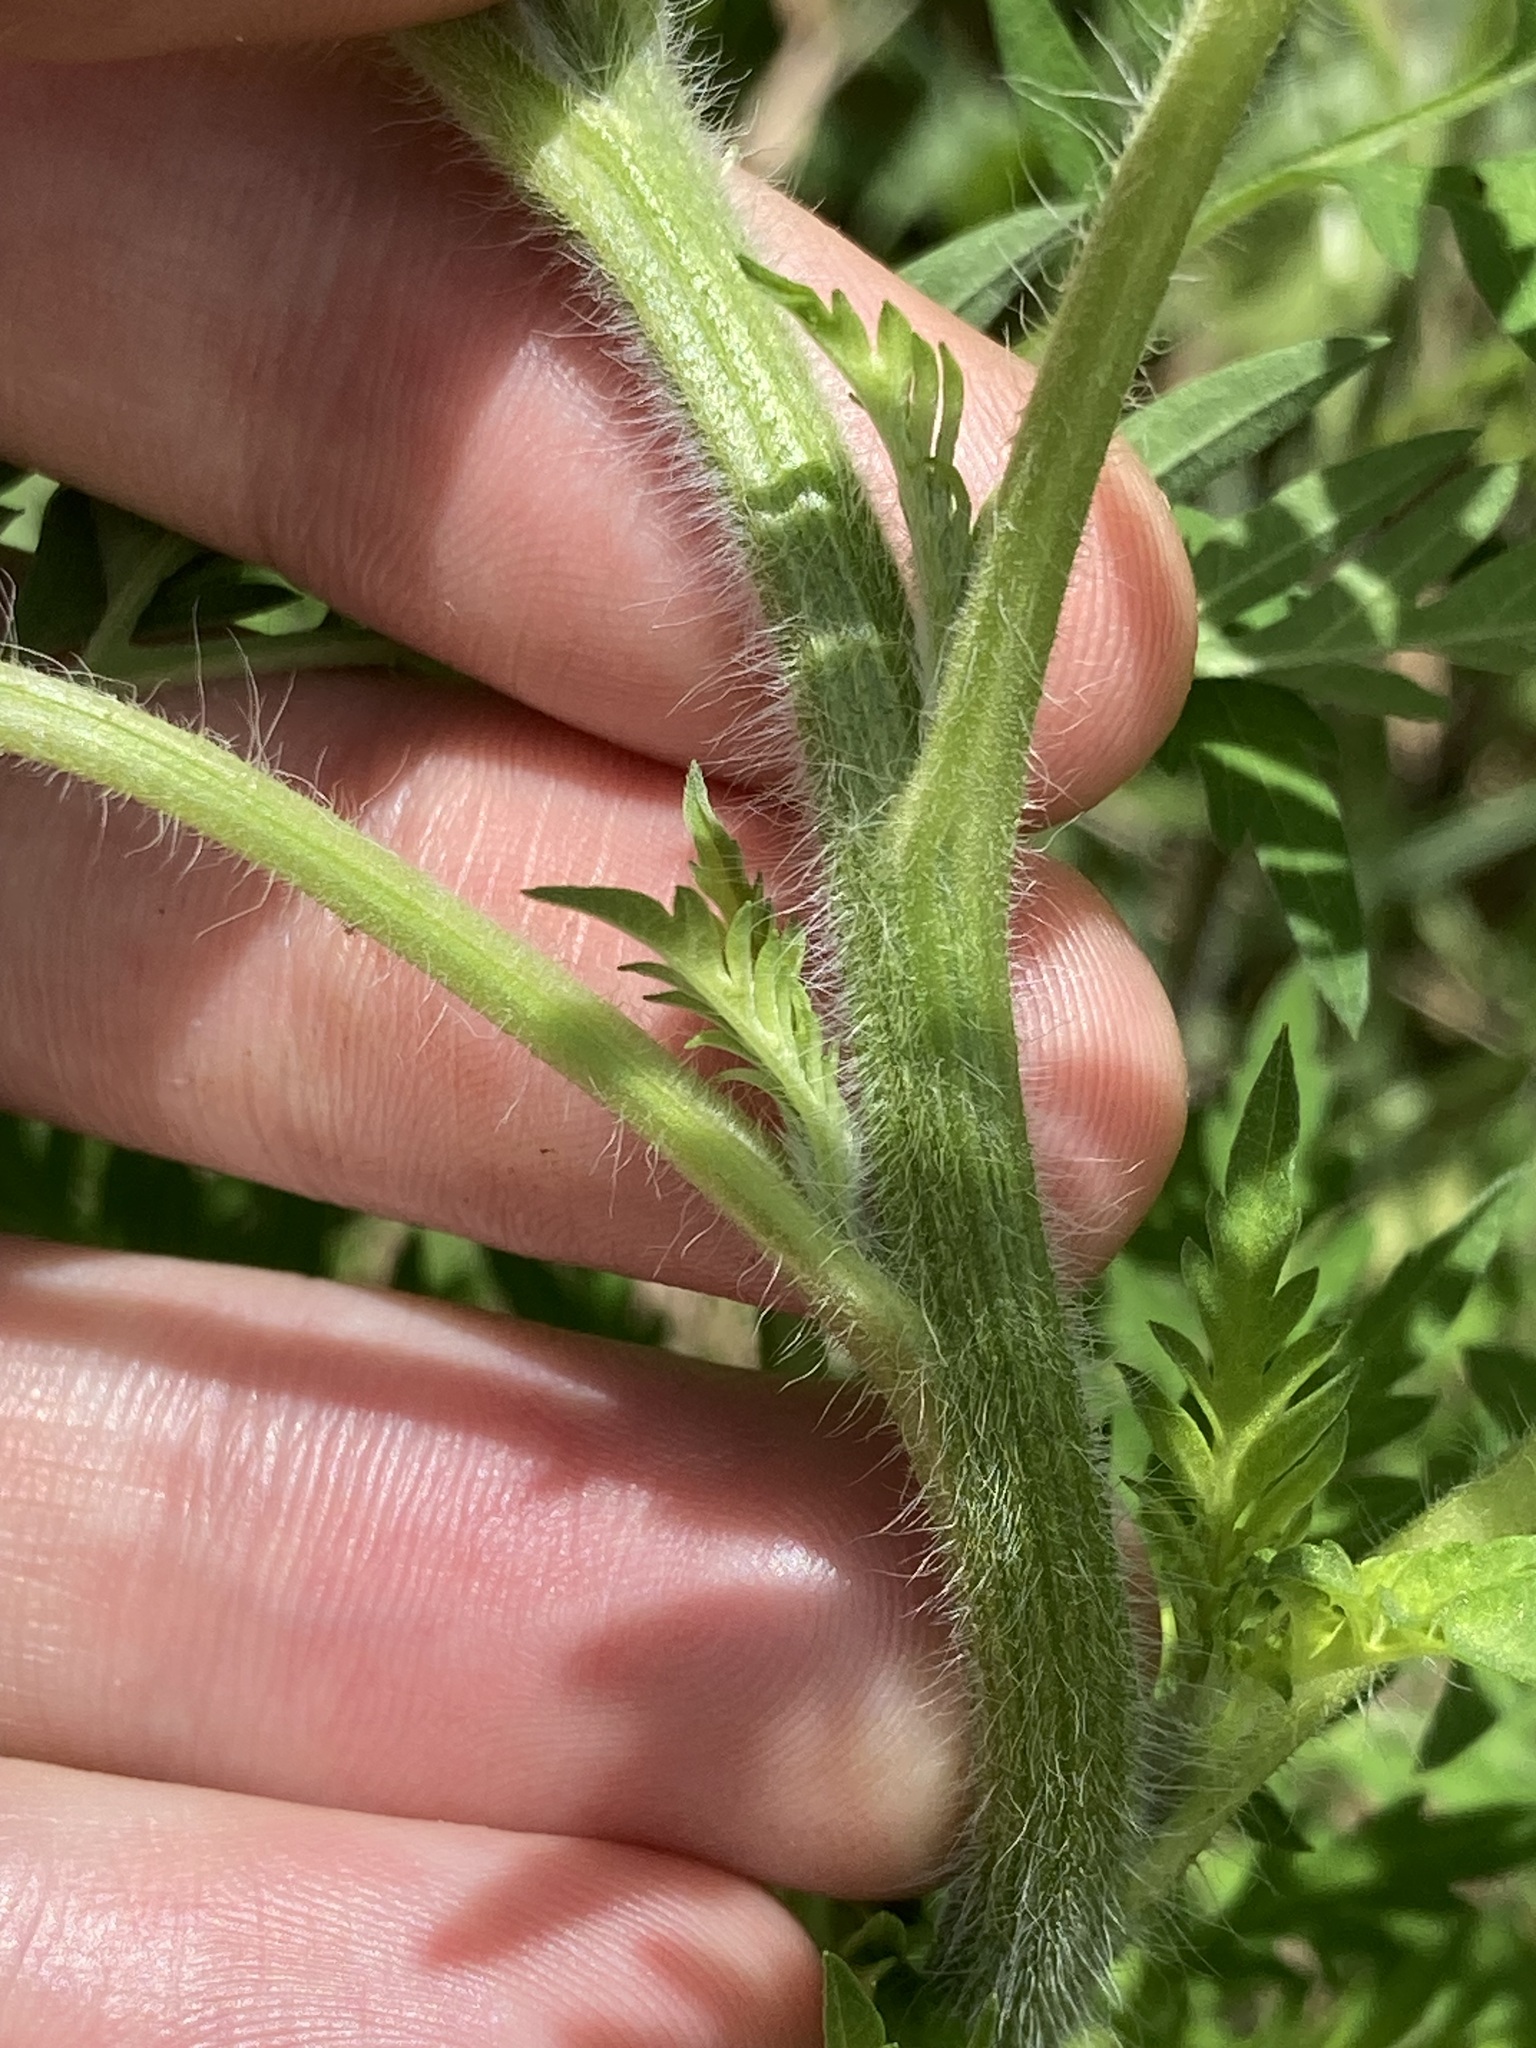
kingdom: Plantae
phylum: Tracheophyta
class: Magnoliopsida
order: Asterales
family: Asteraceae
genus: Ambrosia
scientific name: Ambrosia artemisiifolia
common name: Annual ragweed
